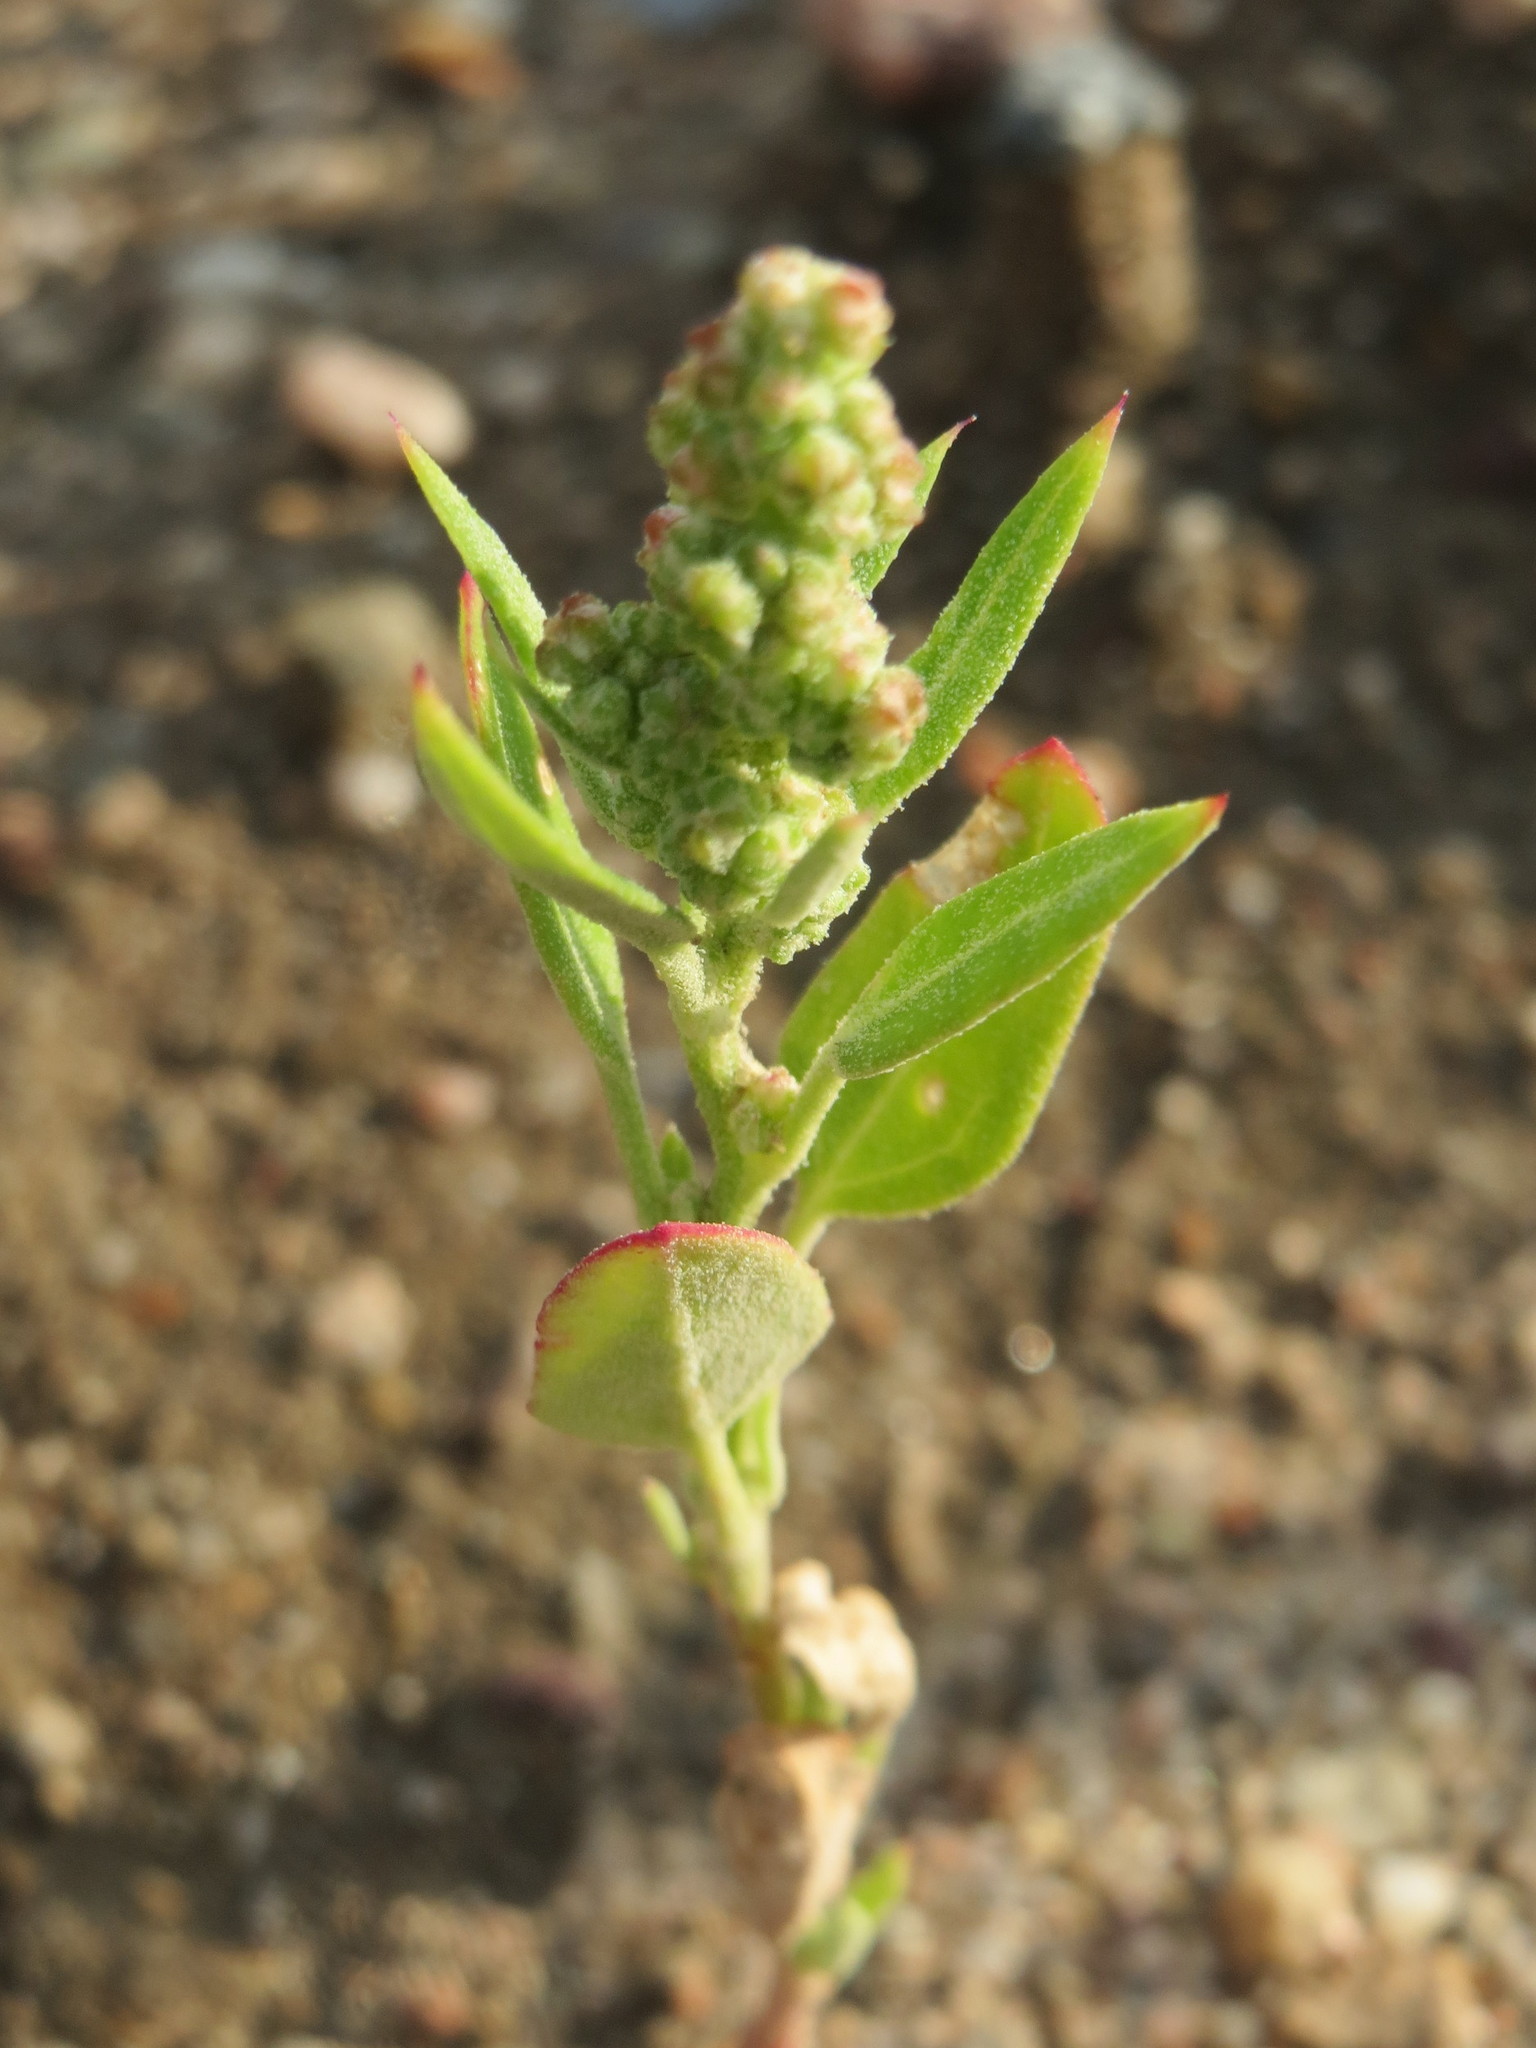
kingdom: Plantae
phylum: Tracheophyta
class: Magnoliopsida
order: Caryophyllales
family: Amaranthaceae
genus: Chenopodium
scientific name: Chenopodium album
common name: Fat-hen
